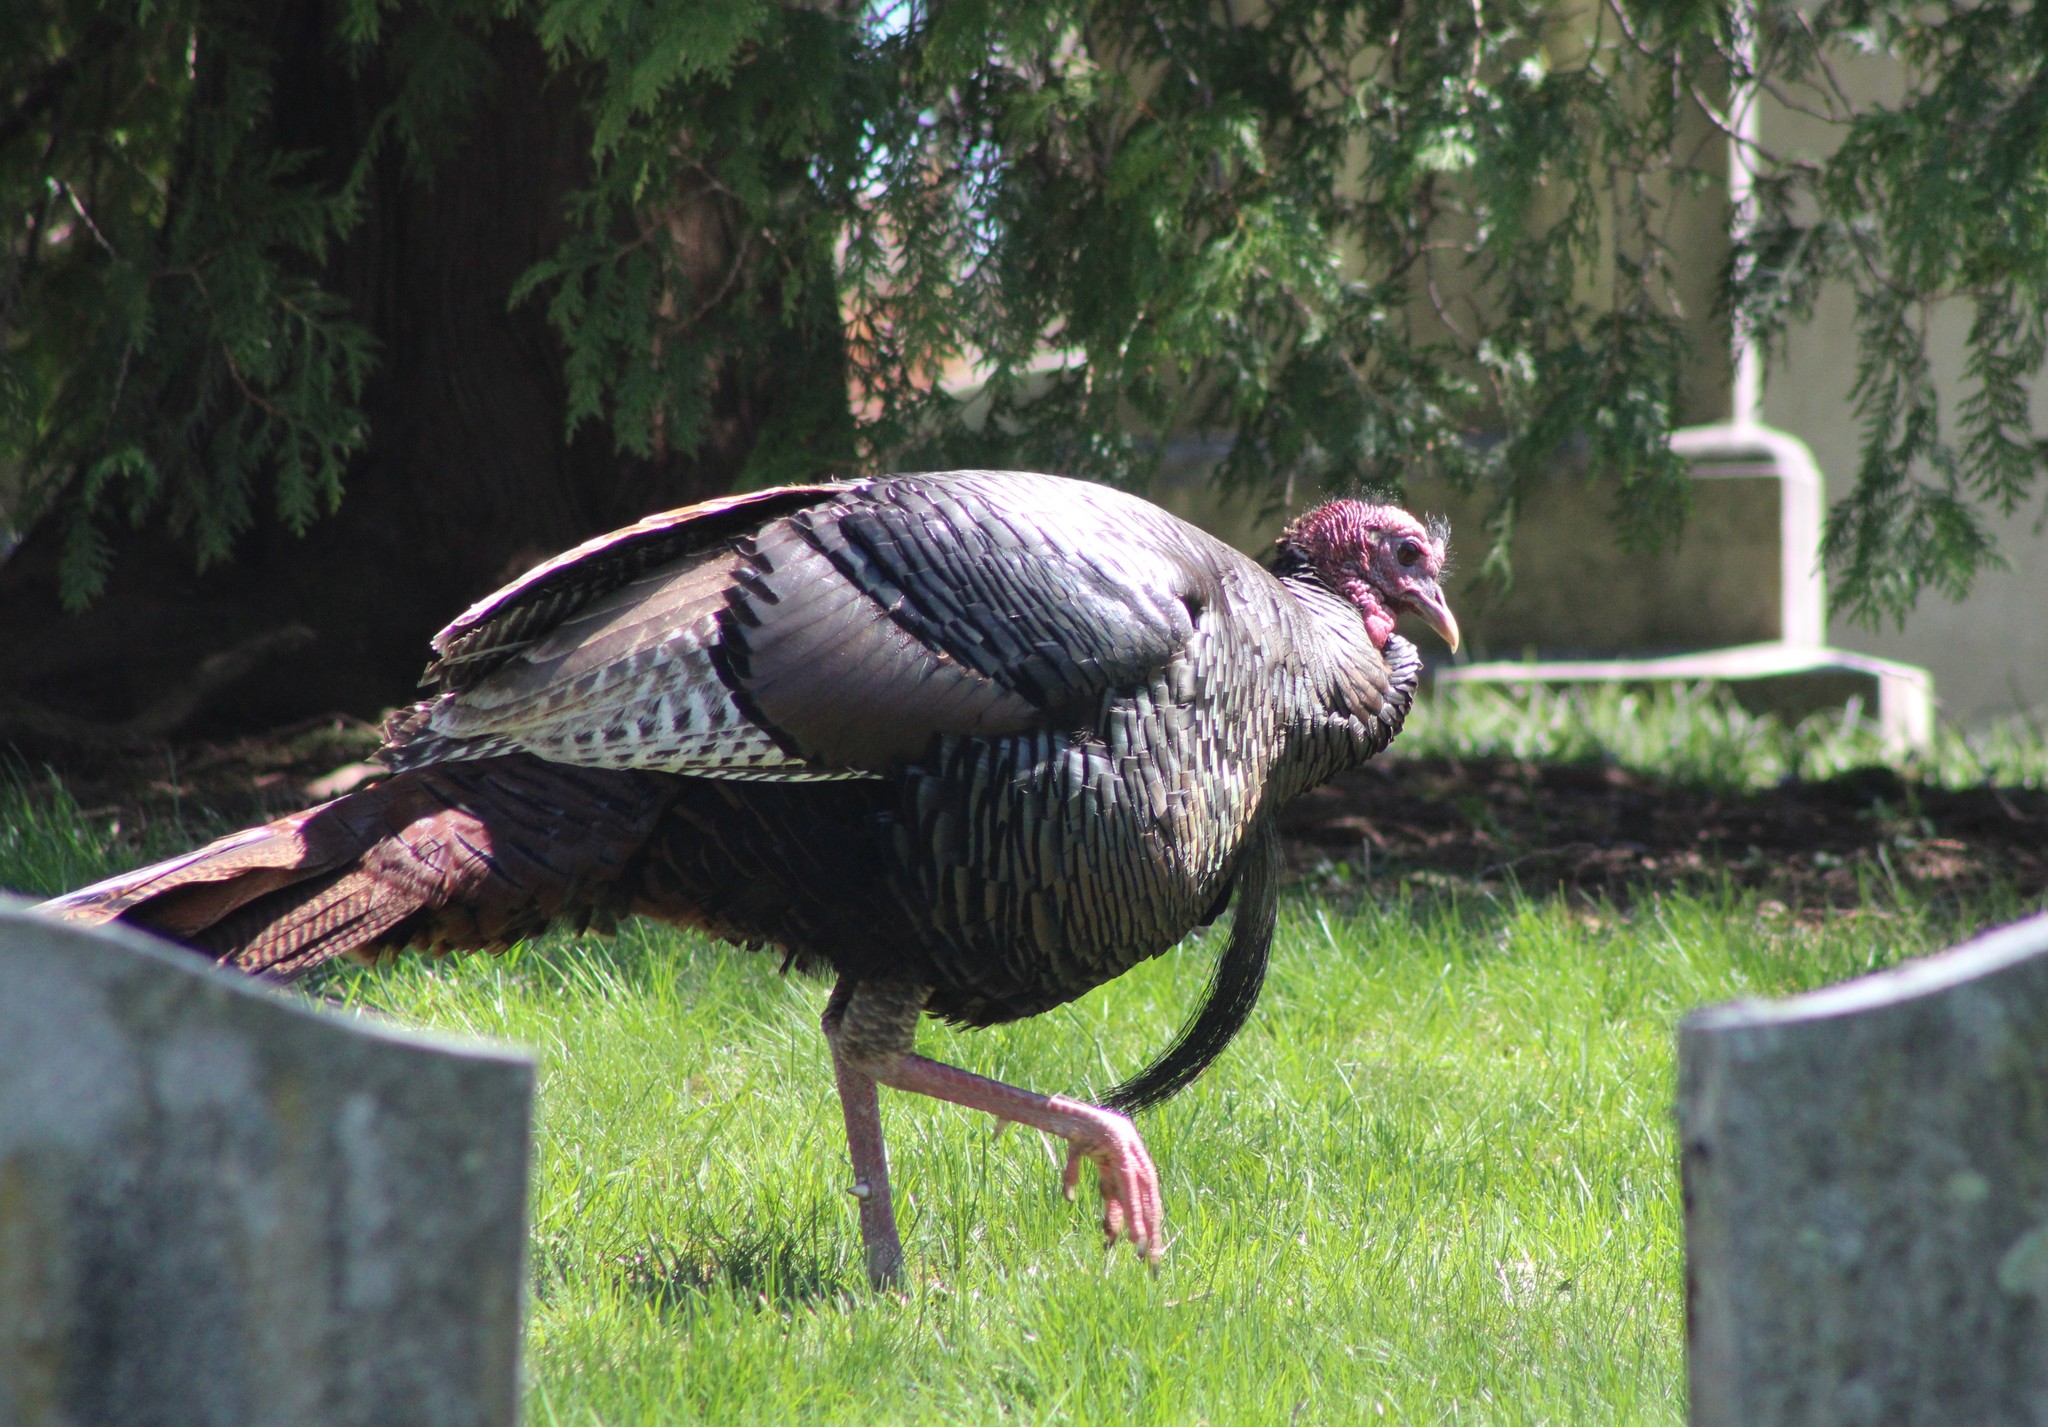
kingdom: Animalia
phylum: Chordata
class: Aves
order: Galliformes
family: Phasianidae
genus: Meleagris
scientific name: Meleagris gallopavo
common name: Wild turkey
